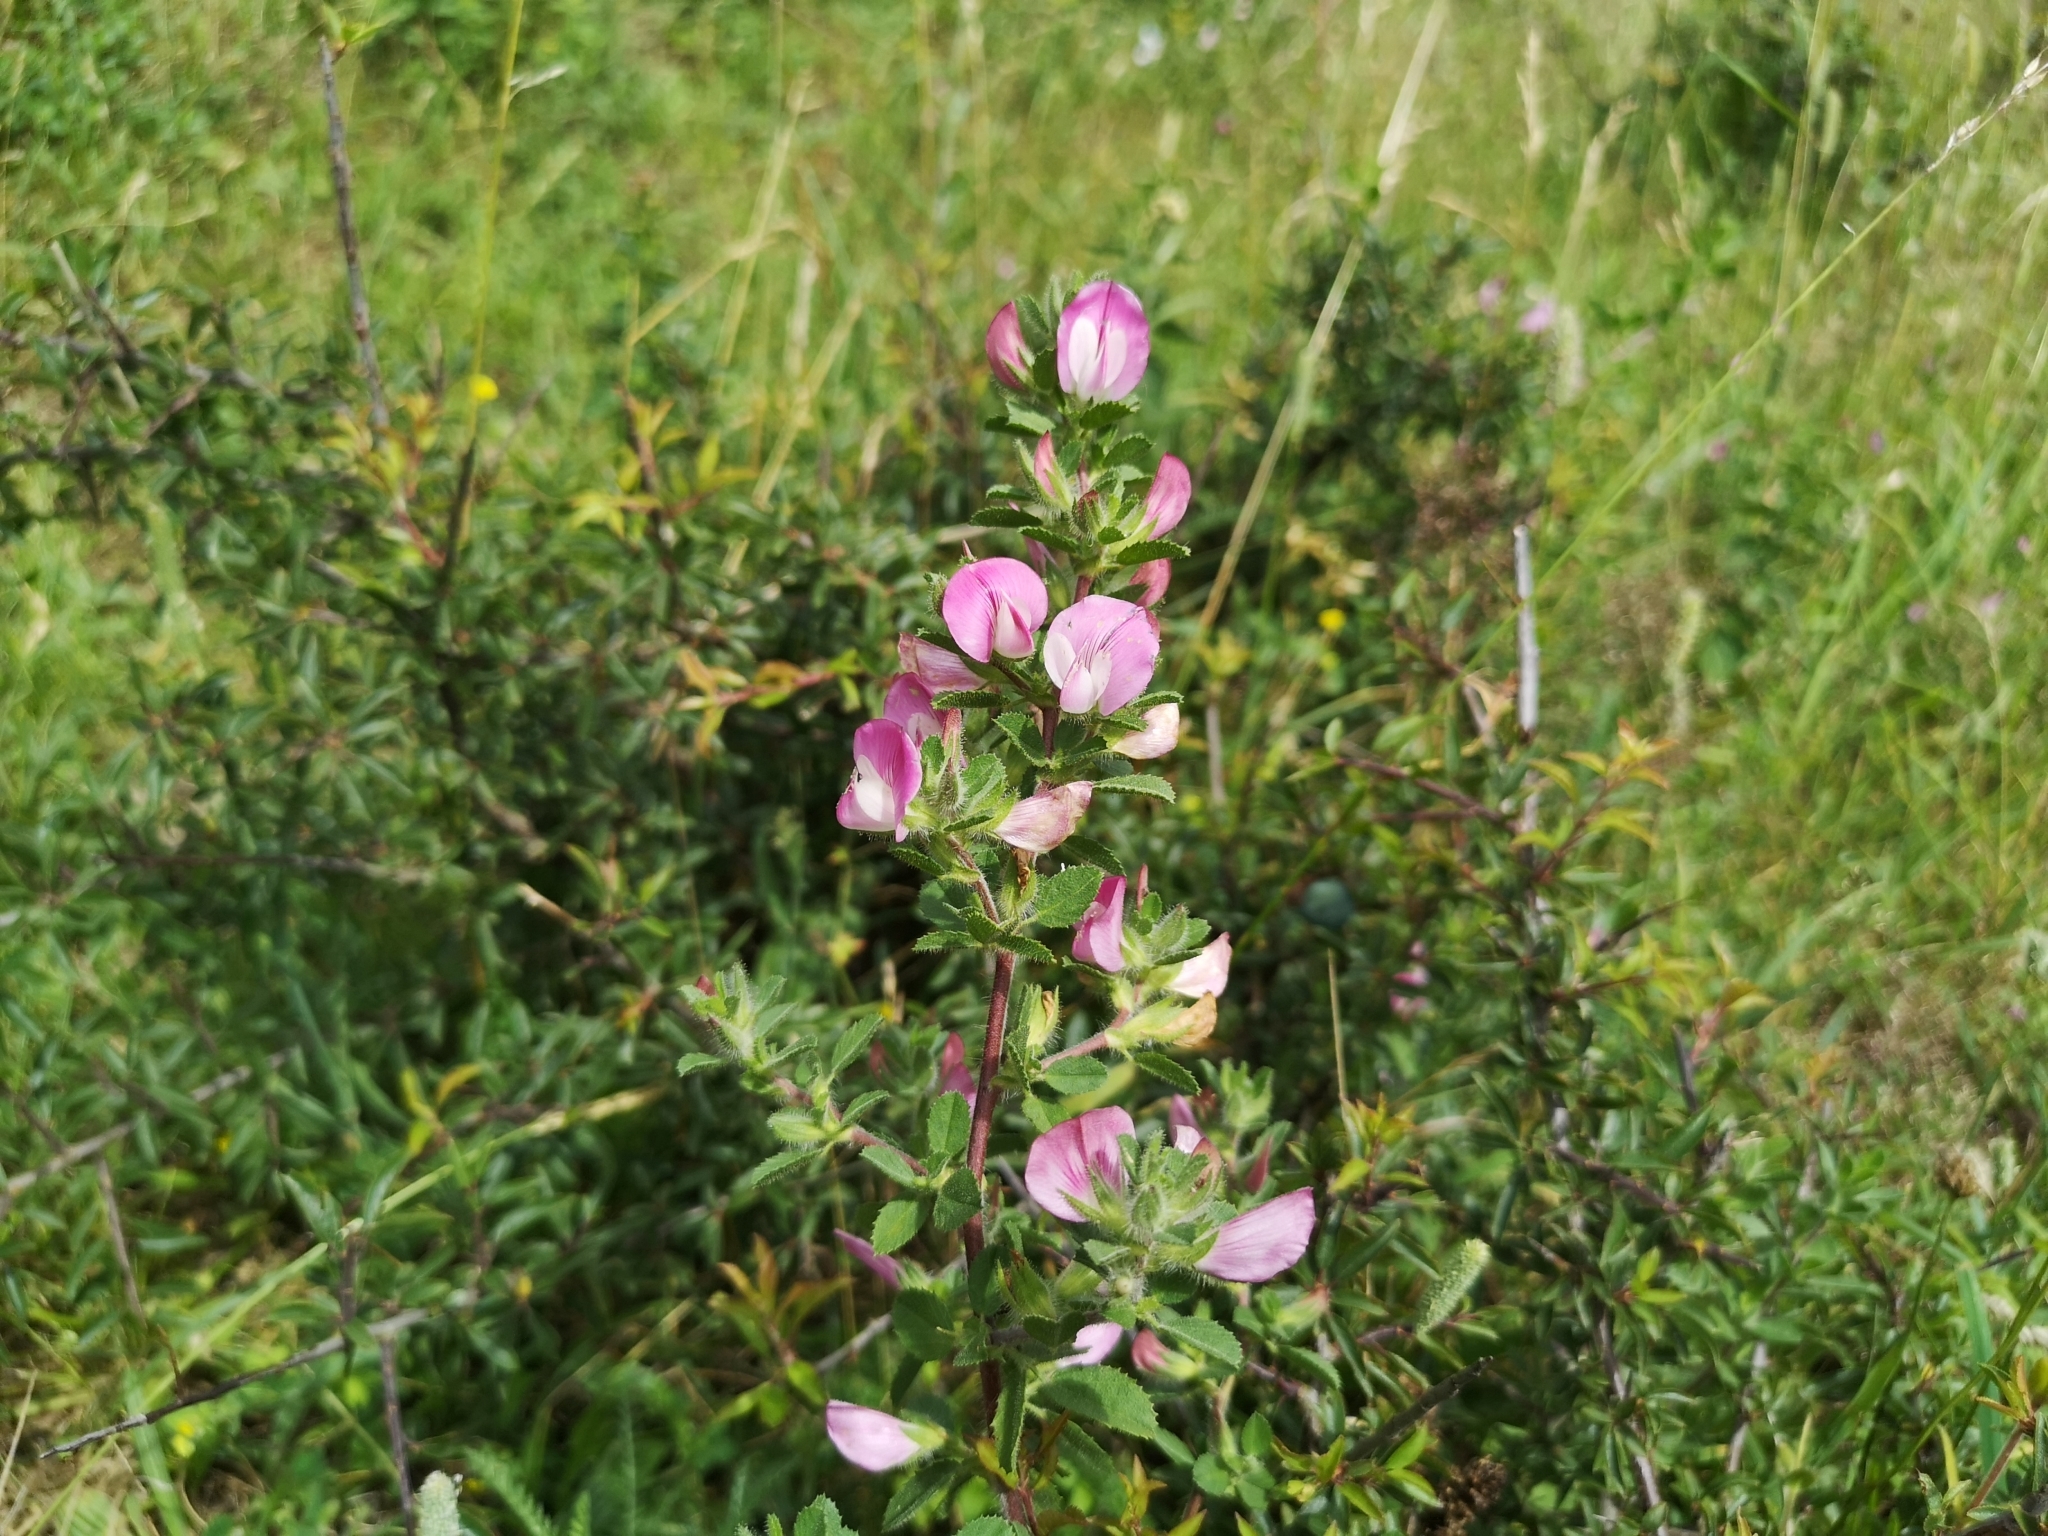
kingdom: Plantae
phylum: Tracheophyta
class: Magnoliopsida
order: Fabales
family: Fabaceae
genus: Ononis
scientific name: Ononis spinosa
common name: Spiny restharrow
